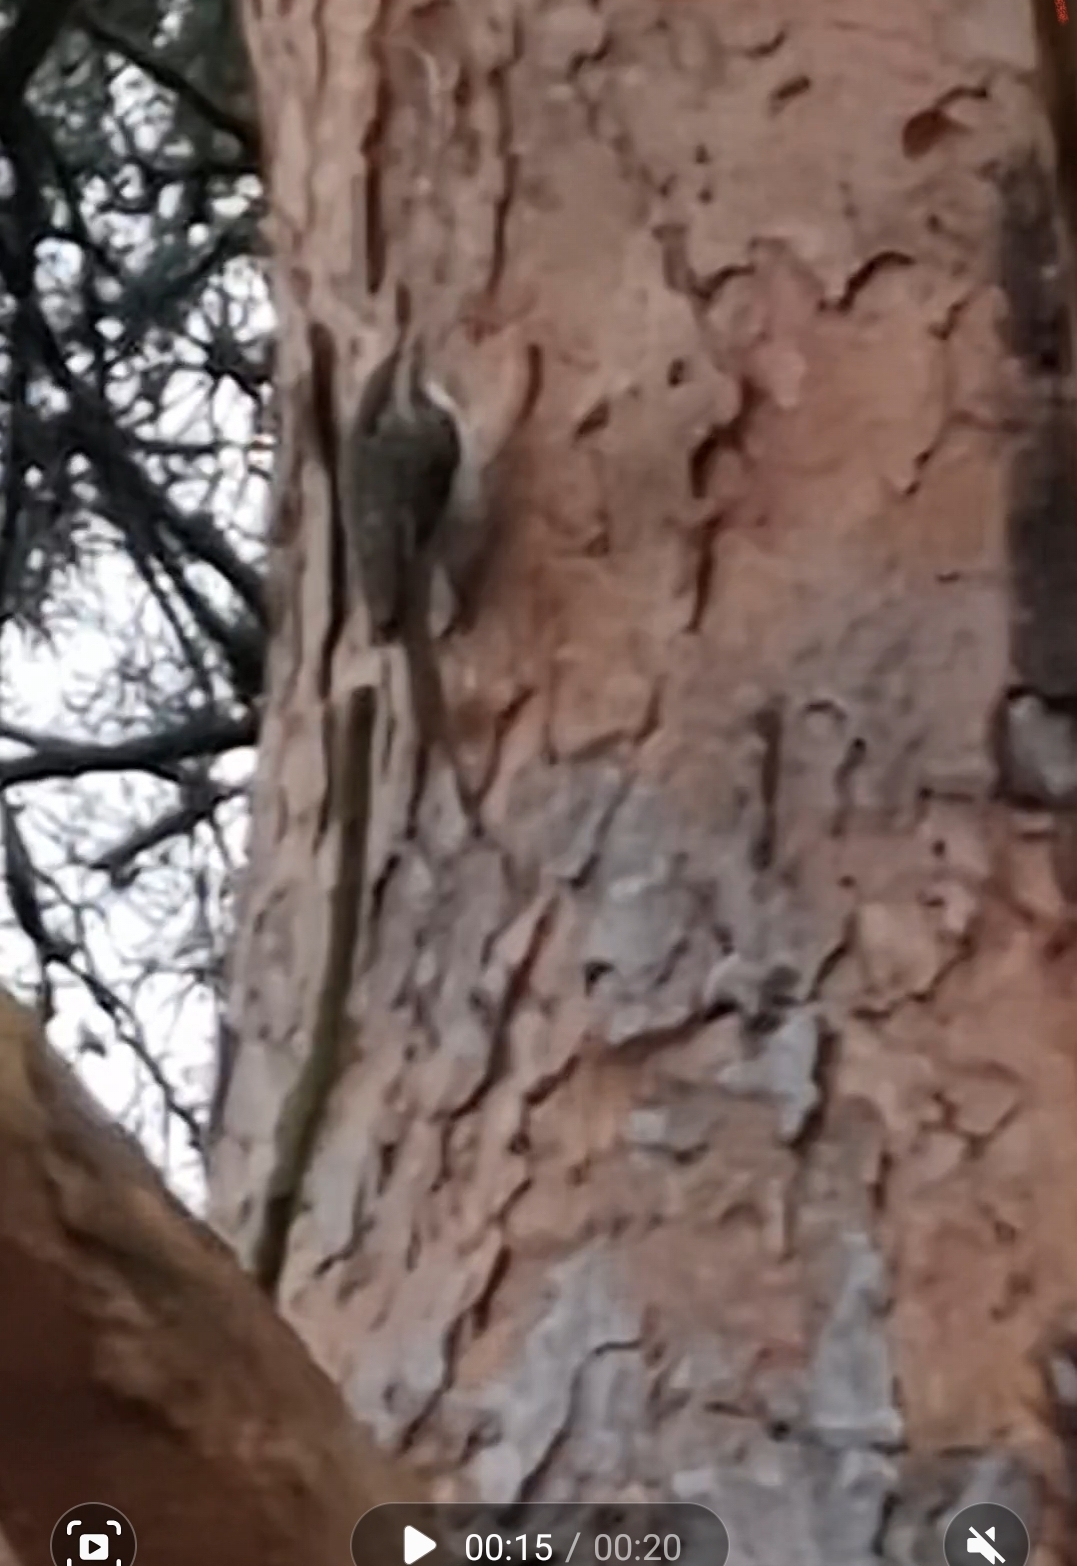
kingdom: Animalia
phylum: Chordata
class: Aves
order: Passeriformes
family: Certhiidae
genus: Certhia
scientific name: Certhia familiaris
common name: Eurasian treecreeper
